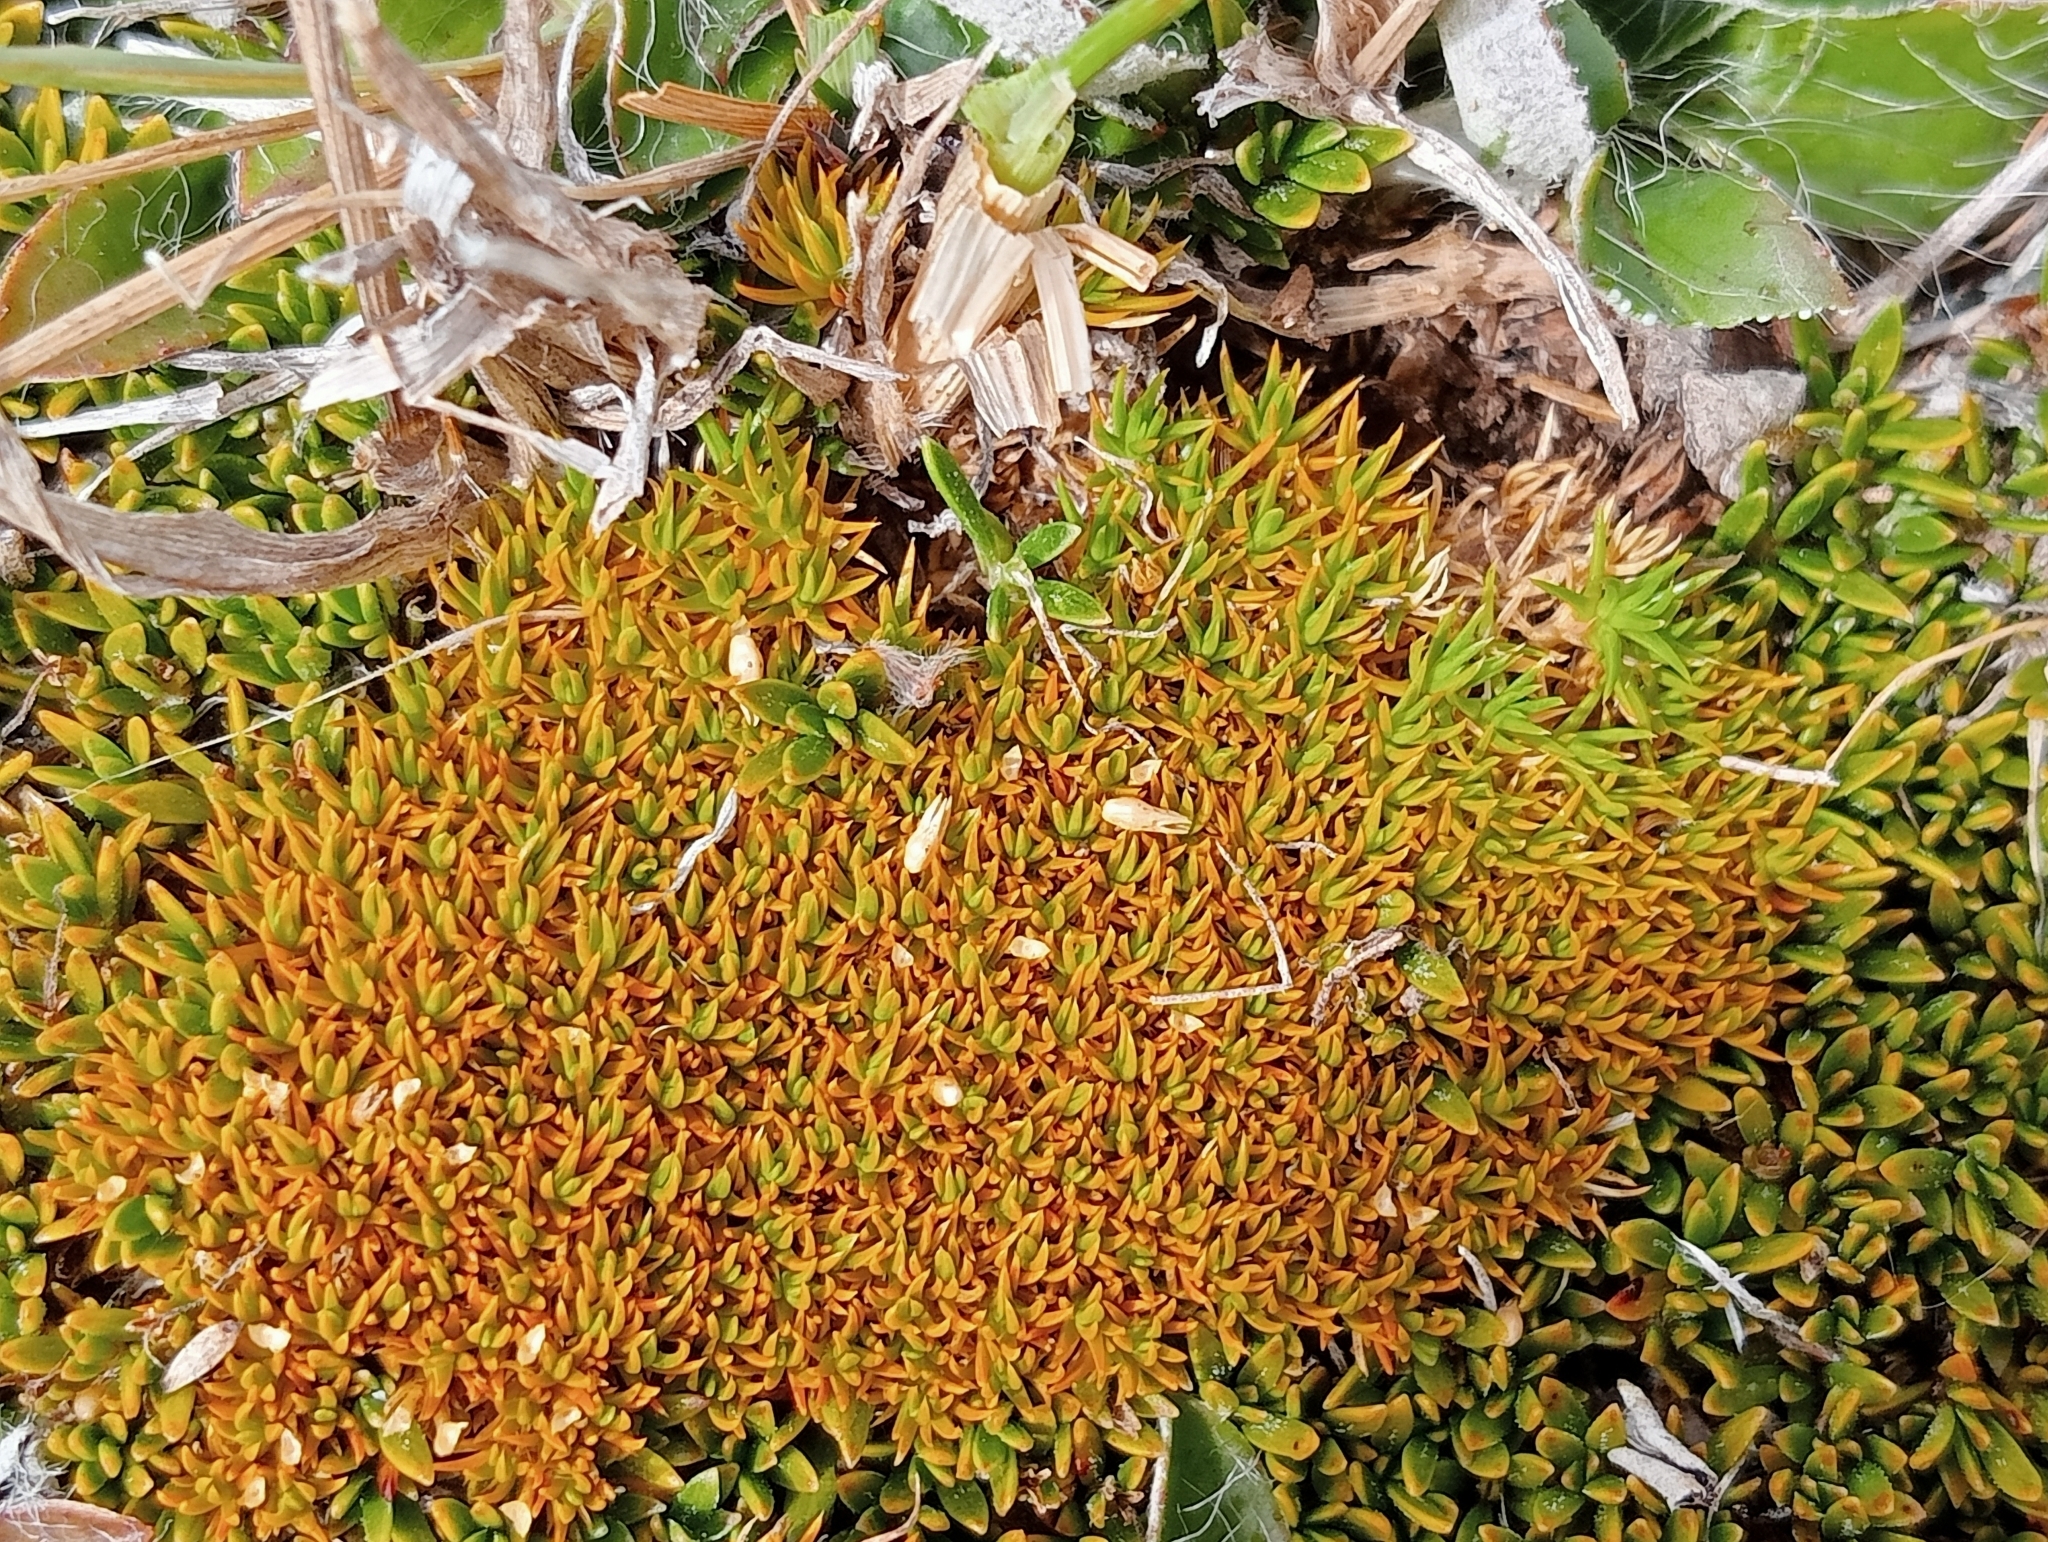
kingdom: Plantae
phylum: Tracheophyta
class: Magnoliopsida
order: Caryophyllales
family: Caryophyllaceae
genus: Scleranthus
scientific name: Scleranthus uniflorus
